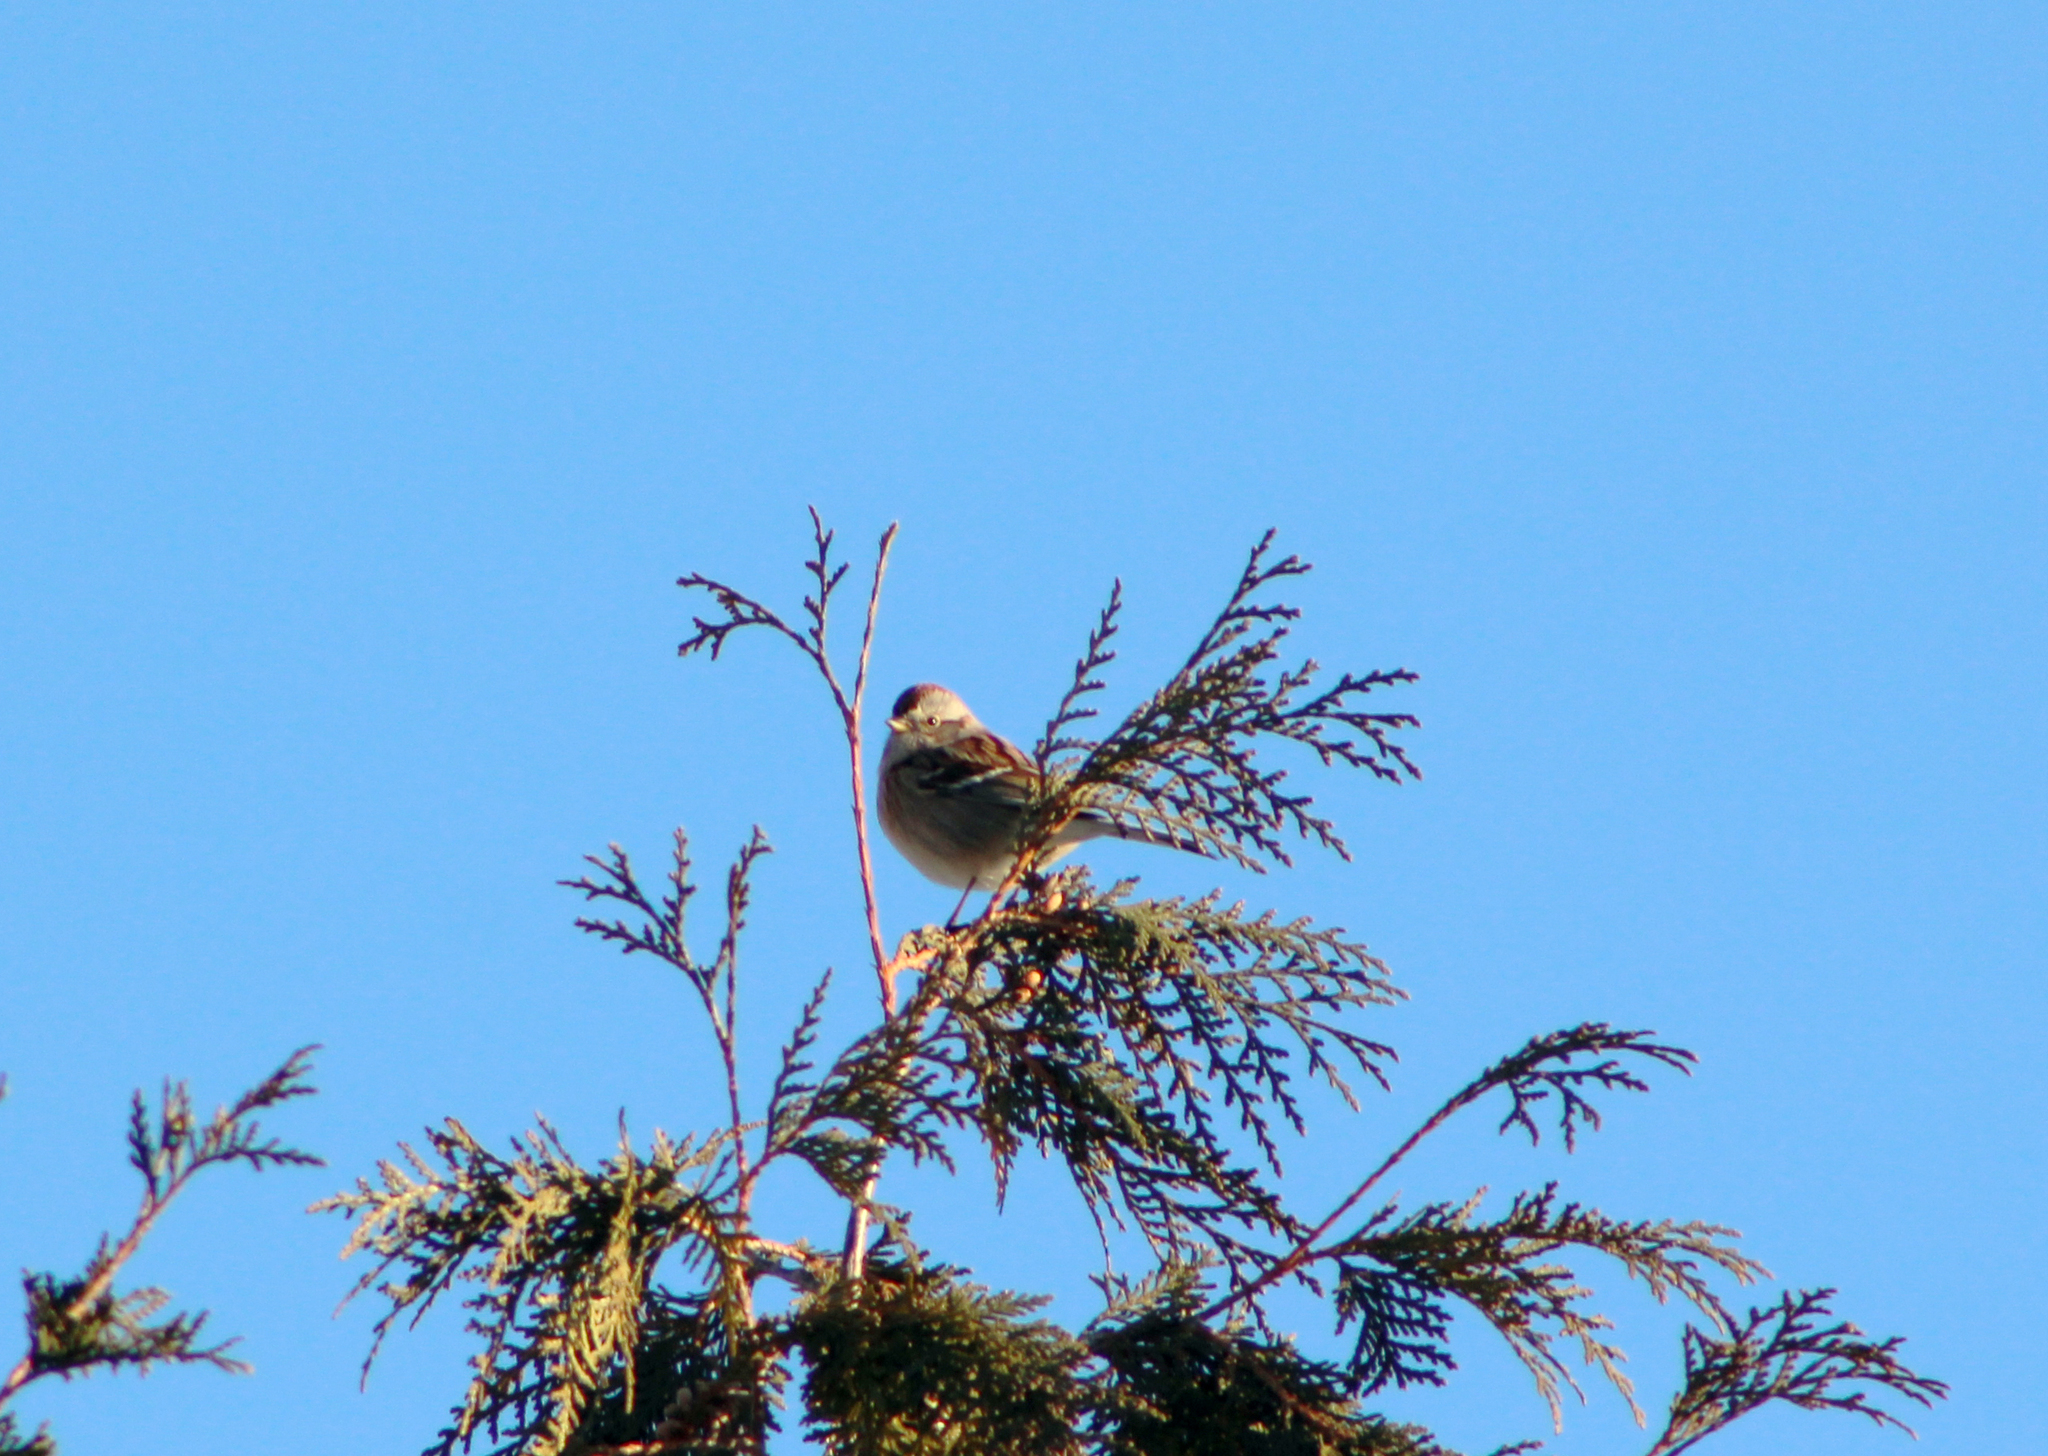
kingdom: Animalia
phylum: Chordata
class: Aves
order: Passeriformes
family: Passerellidae
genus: Spizelloides
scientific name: Spizelloides arborea
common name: American tree sparrow
